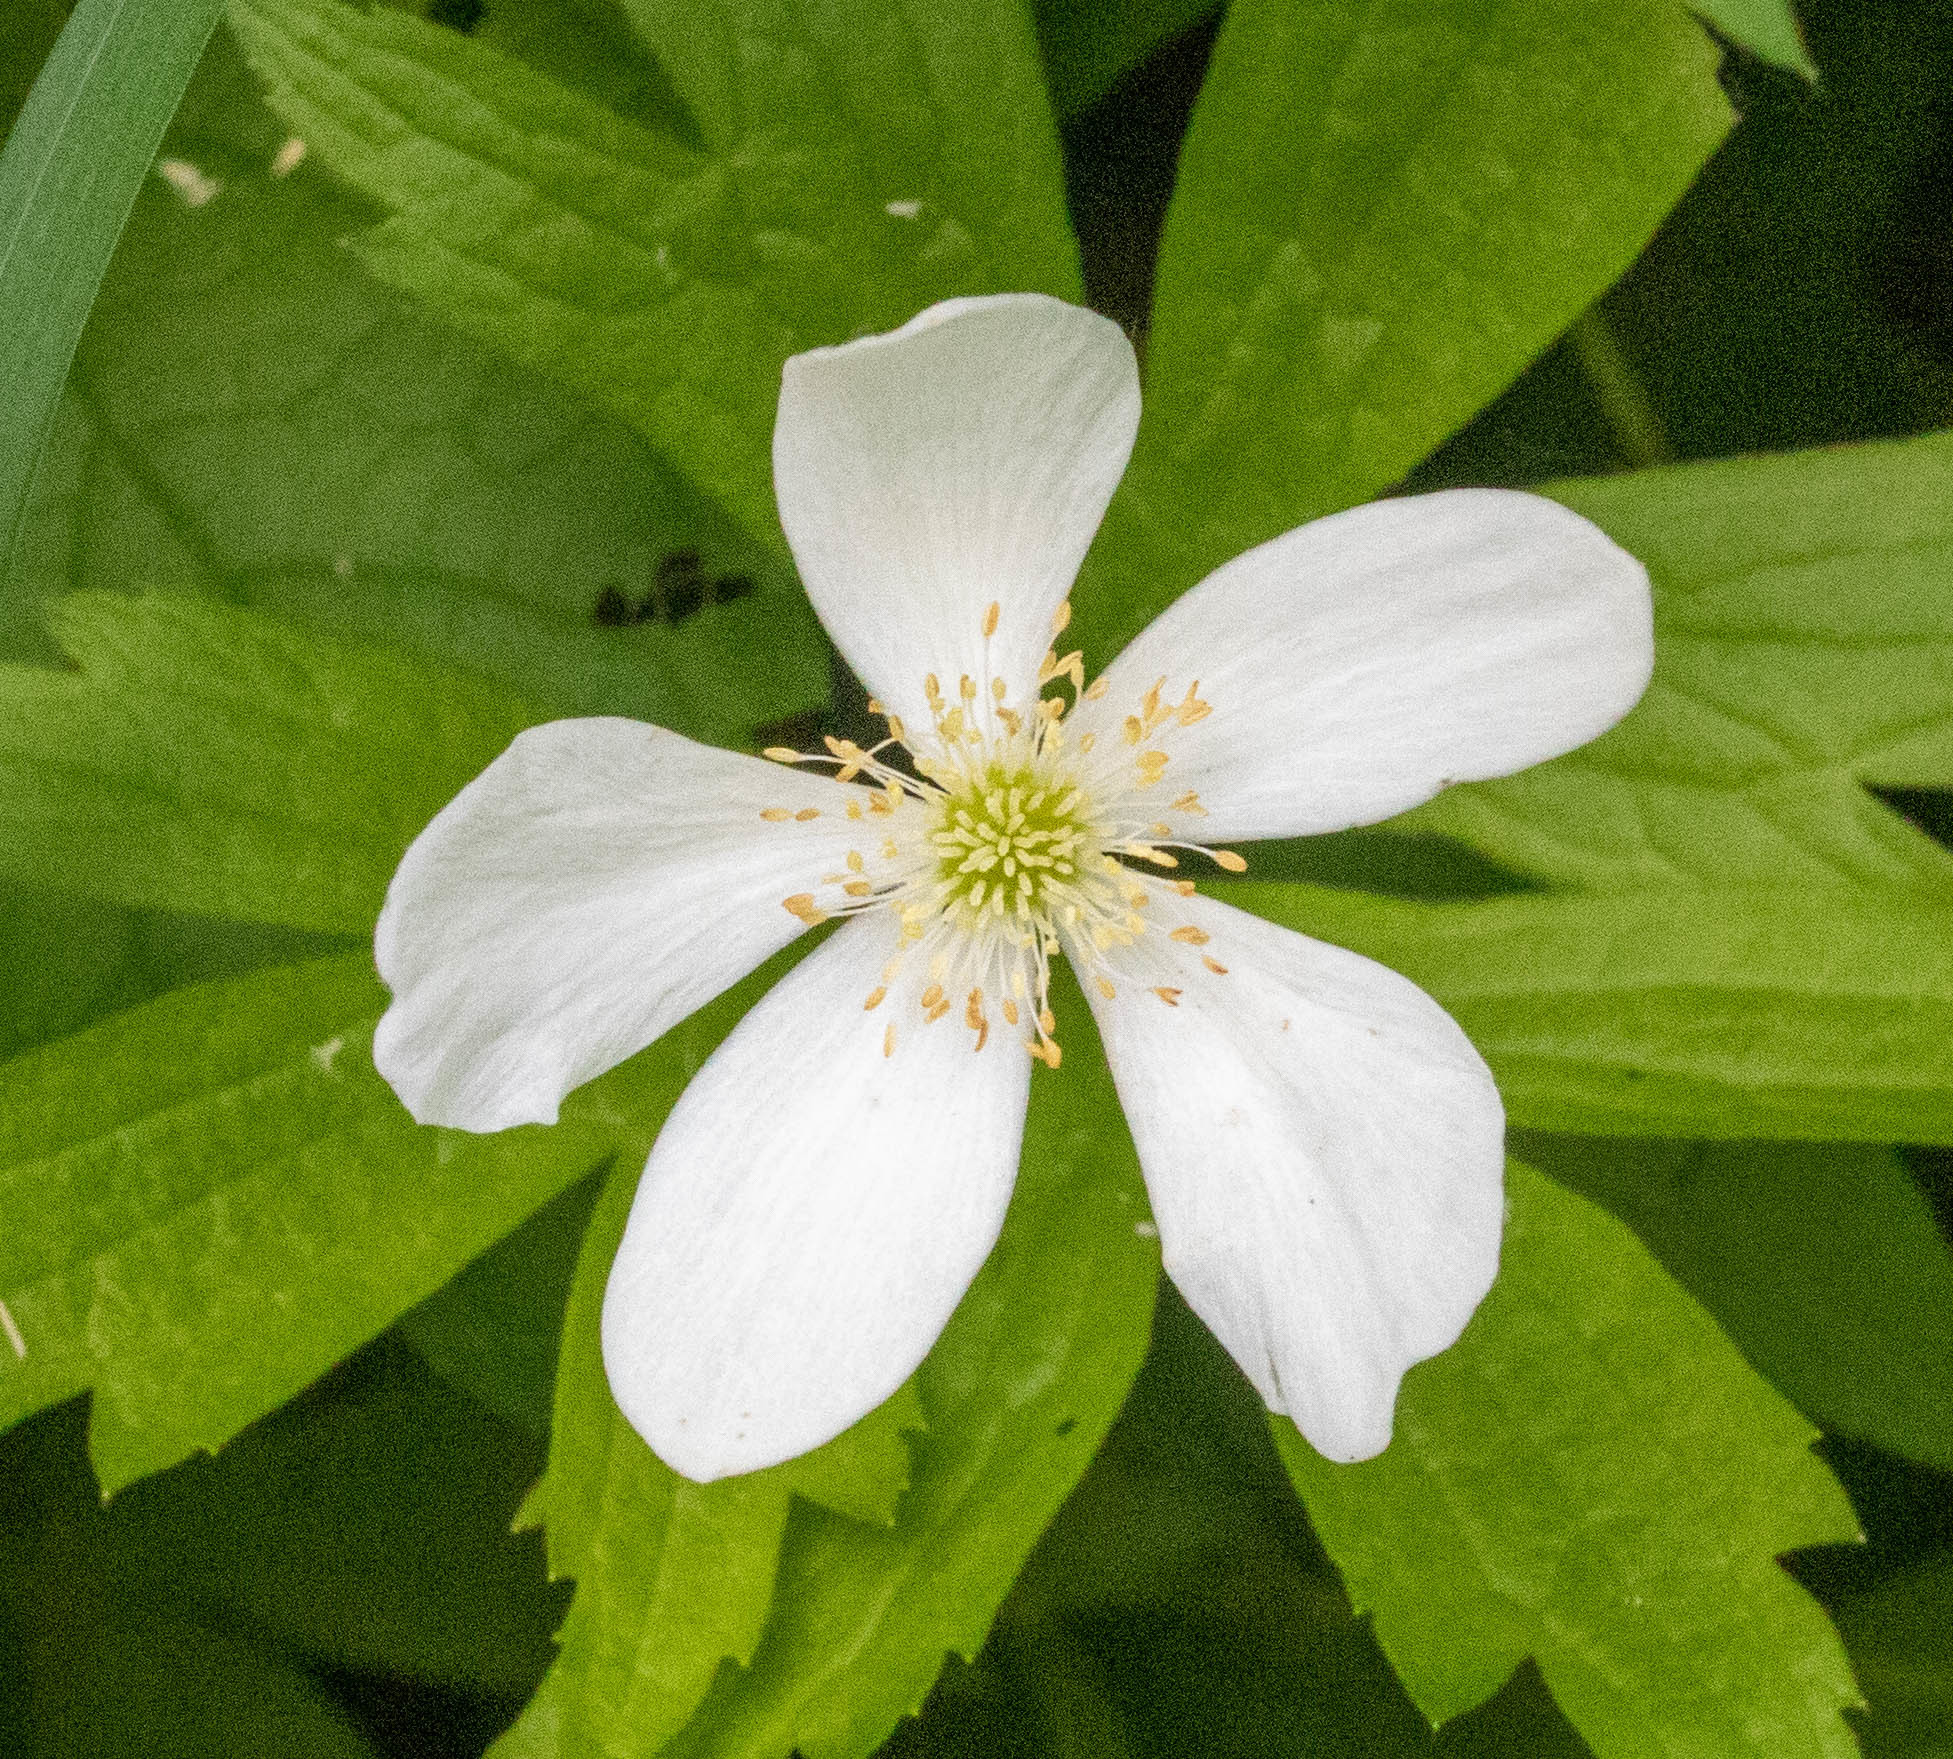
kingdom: Plantae
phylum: Tracheophyta
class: Magnoliopsida
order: Ranunculales
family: Ranunculaceae
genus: Anemonastrum
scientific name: Anemonastrum canadense
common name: Canada anemone
